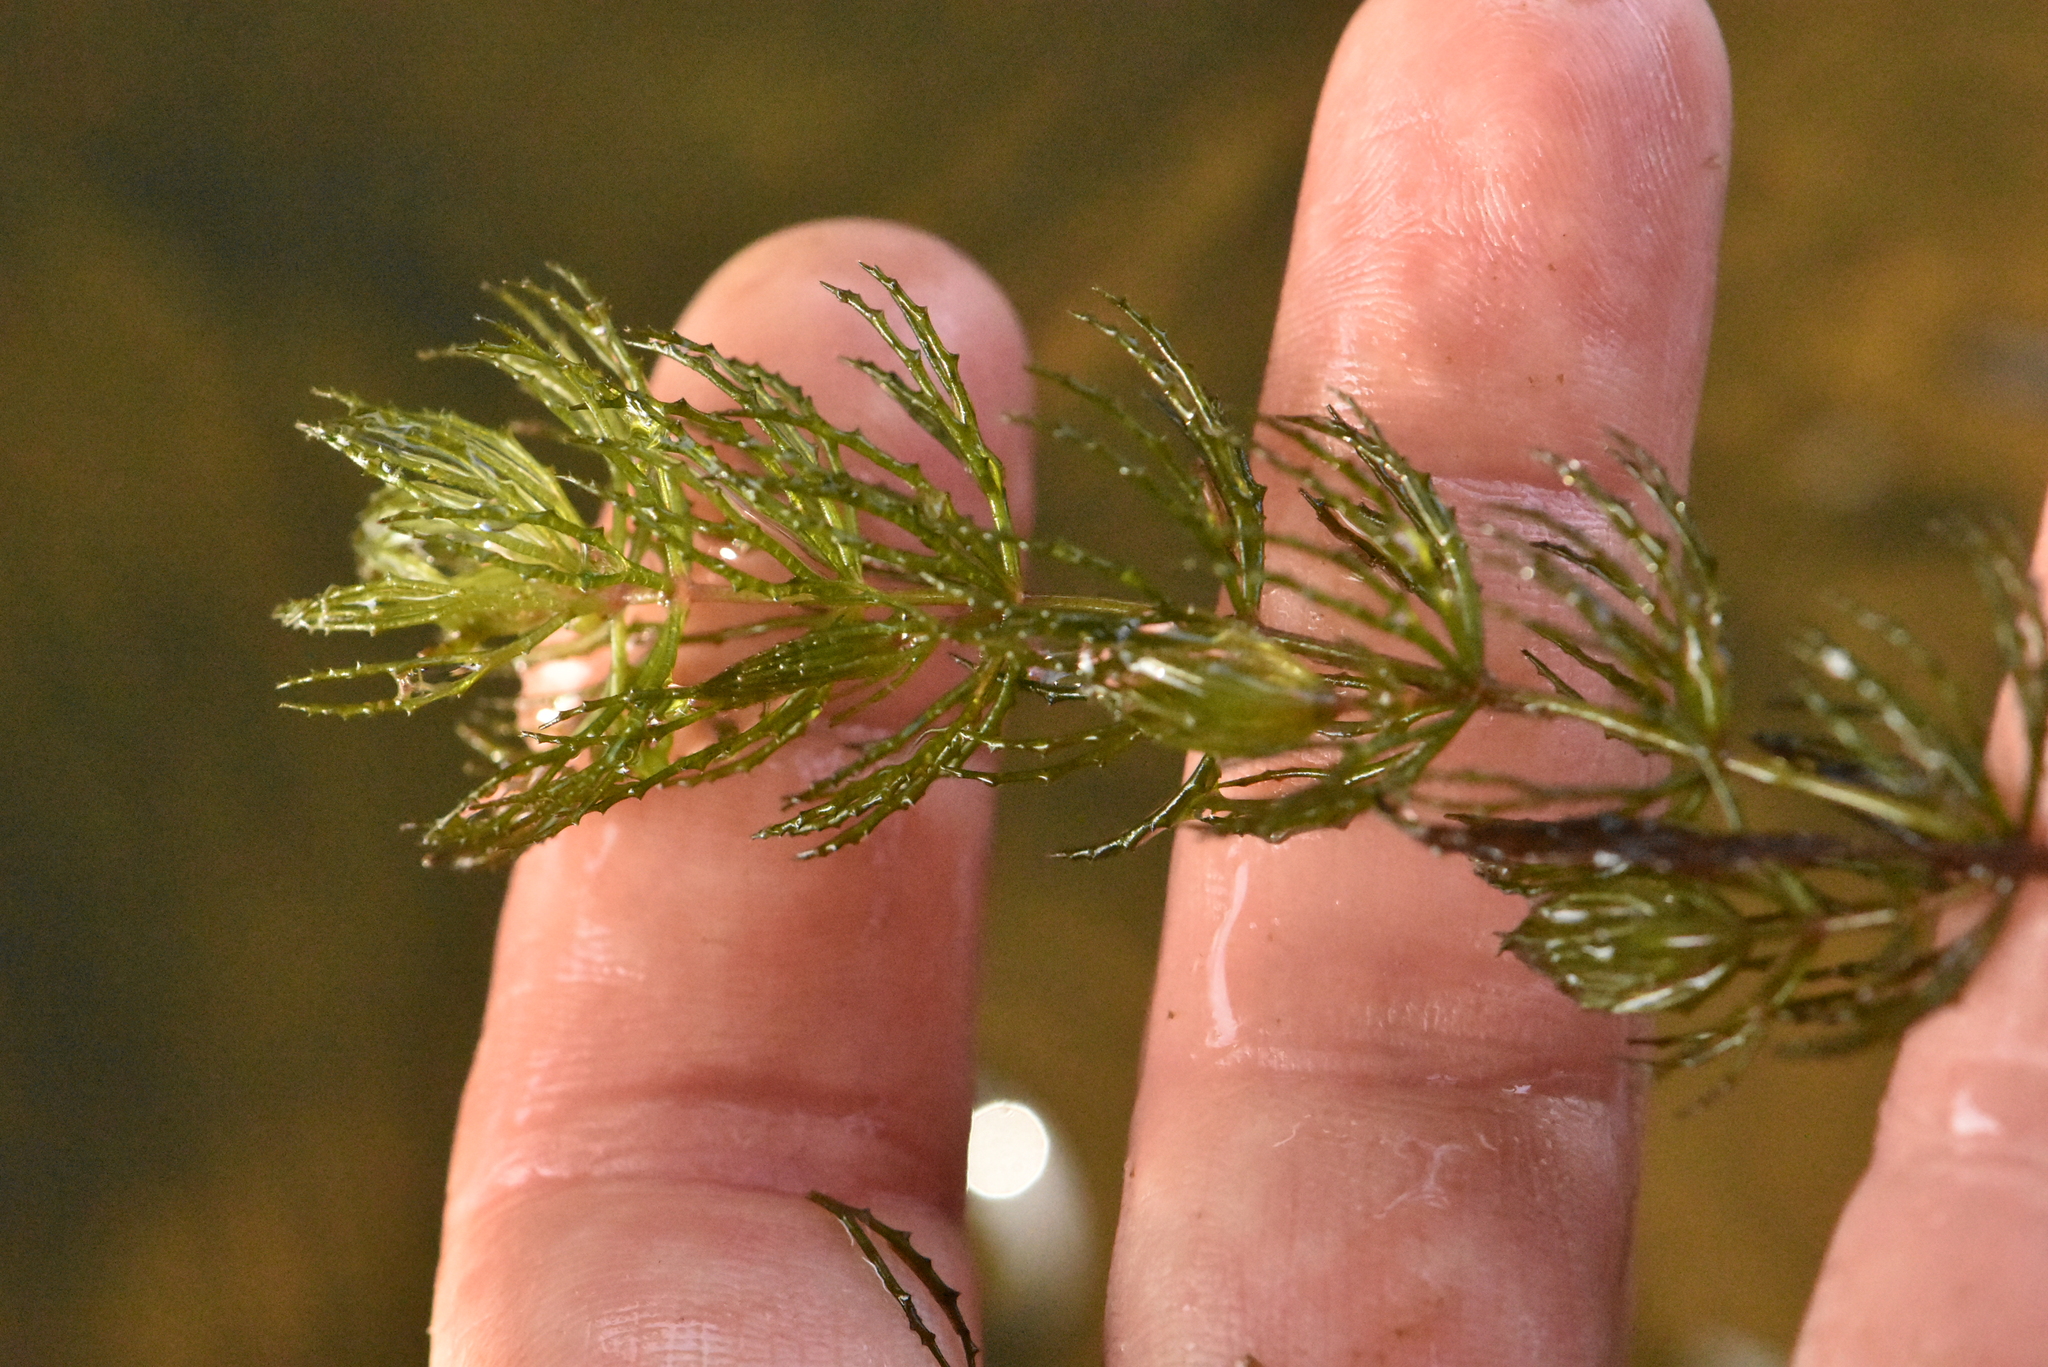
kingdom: Plantae
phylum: Tracheophyta
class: Magnoliopsida
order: Ceratophyllales
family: Ceratophyllaceae
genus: Ceratophyllum
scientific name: Ceratophyllum demersum
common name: Rigid hornwort
